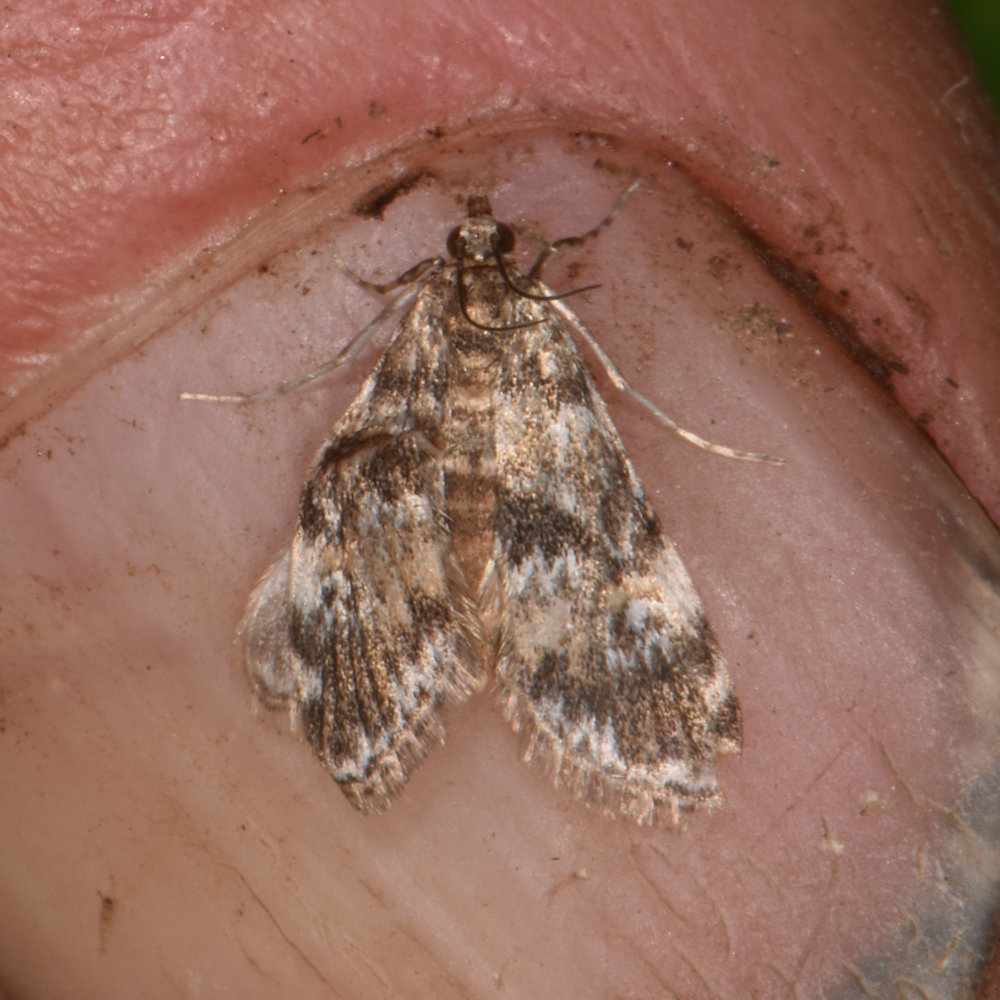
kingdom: Animalia
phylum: Arthropoda
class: Insecta
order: Lepidoptera
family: Crambidae
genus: Elophila
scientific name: Elophila obliteralis
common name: Waterlily leafcutter moth
